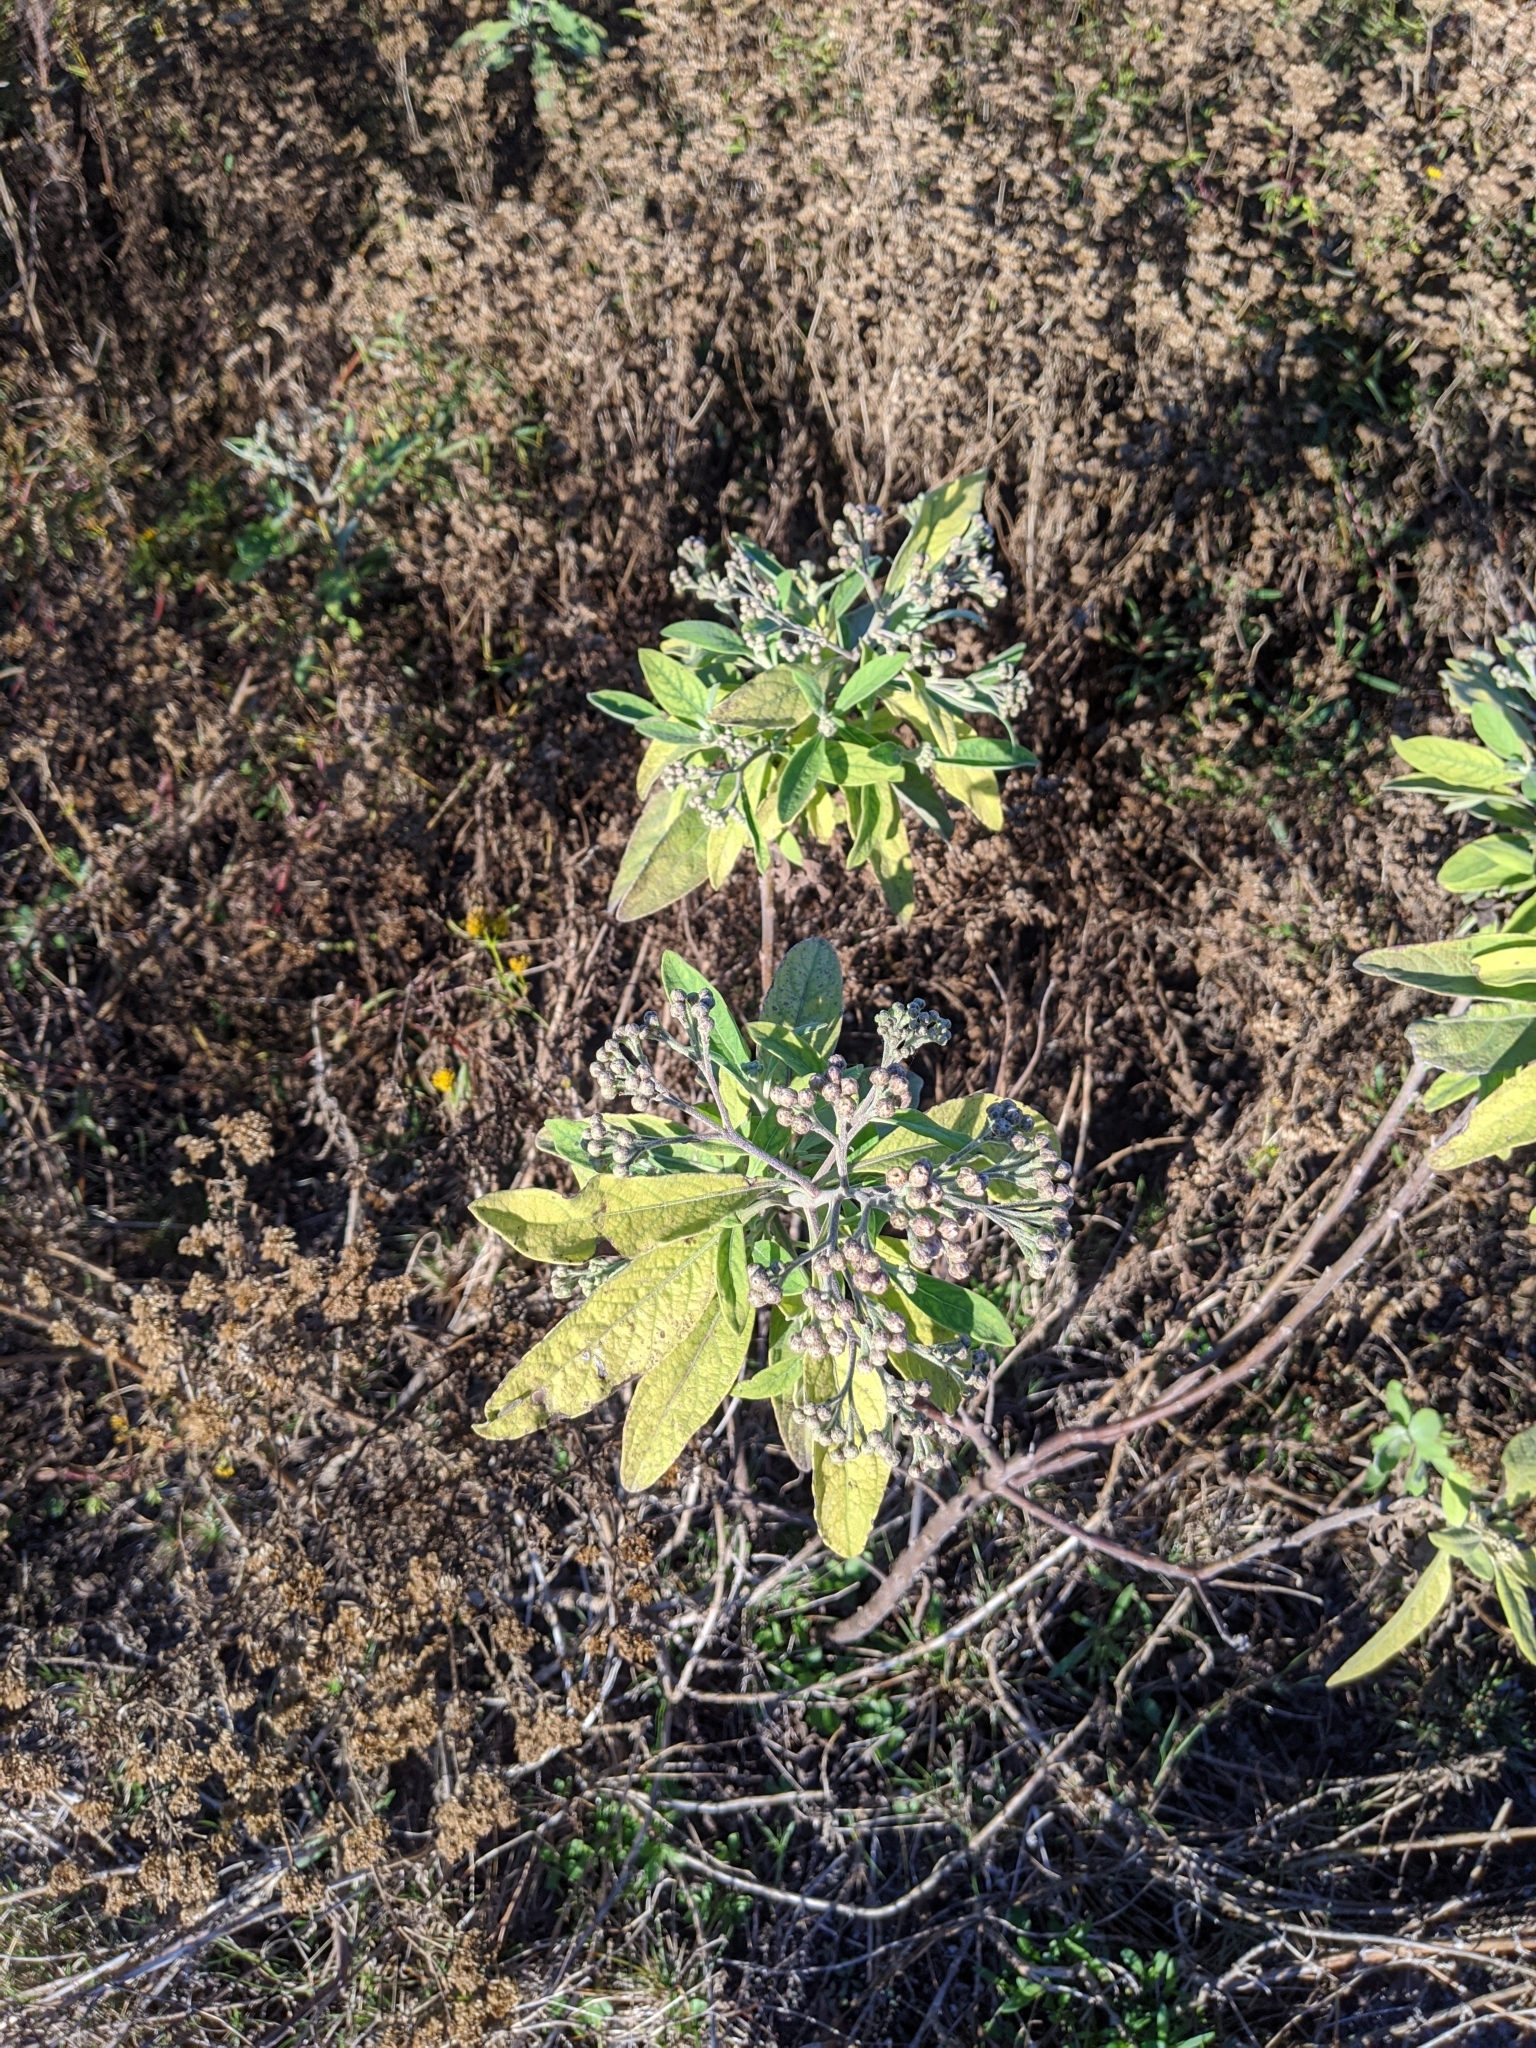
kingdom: Plantae
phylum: Tracheophyta
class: Magnoliopsida
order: Asterales
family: Asteraceae
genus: Pluchea
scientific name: Pluchea carolinensis
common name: Marsh fleabane
